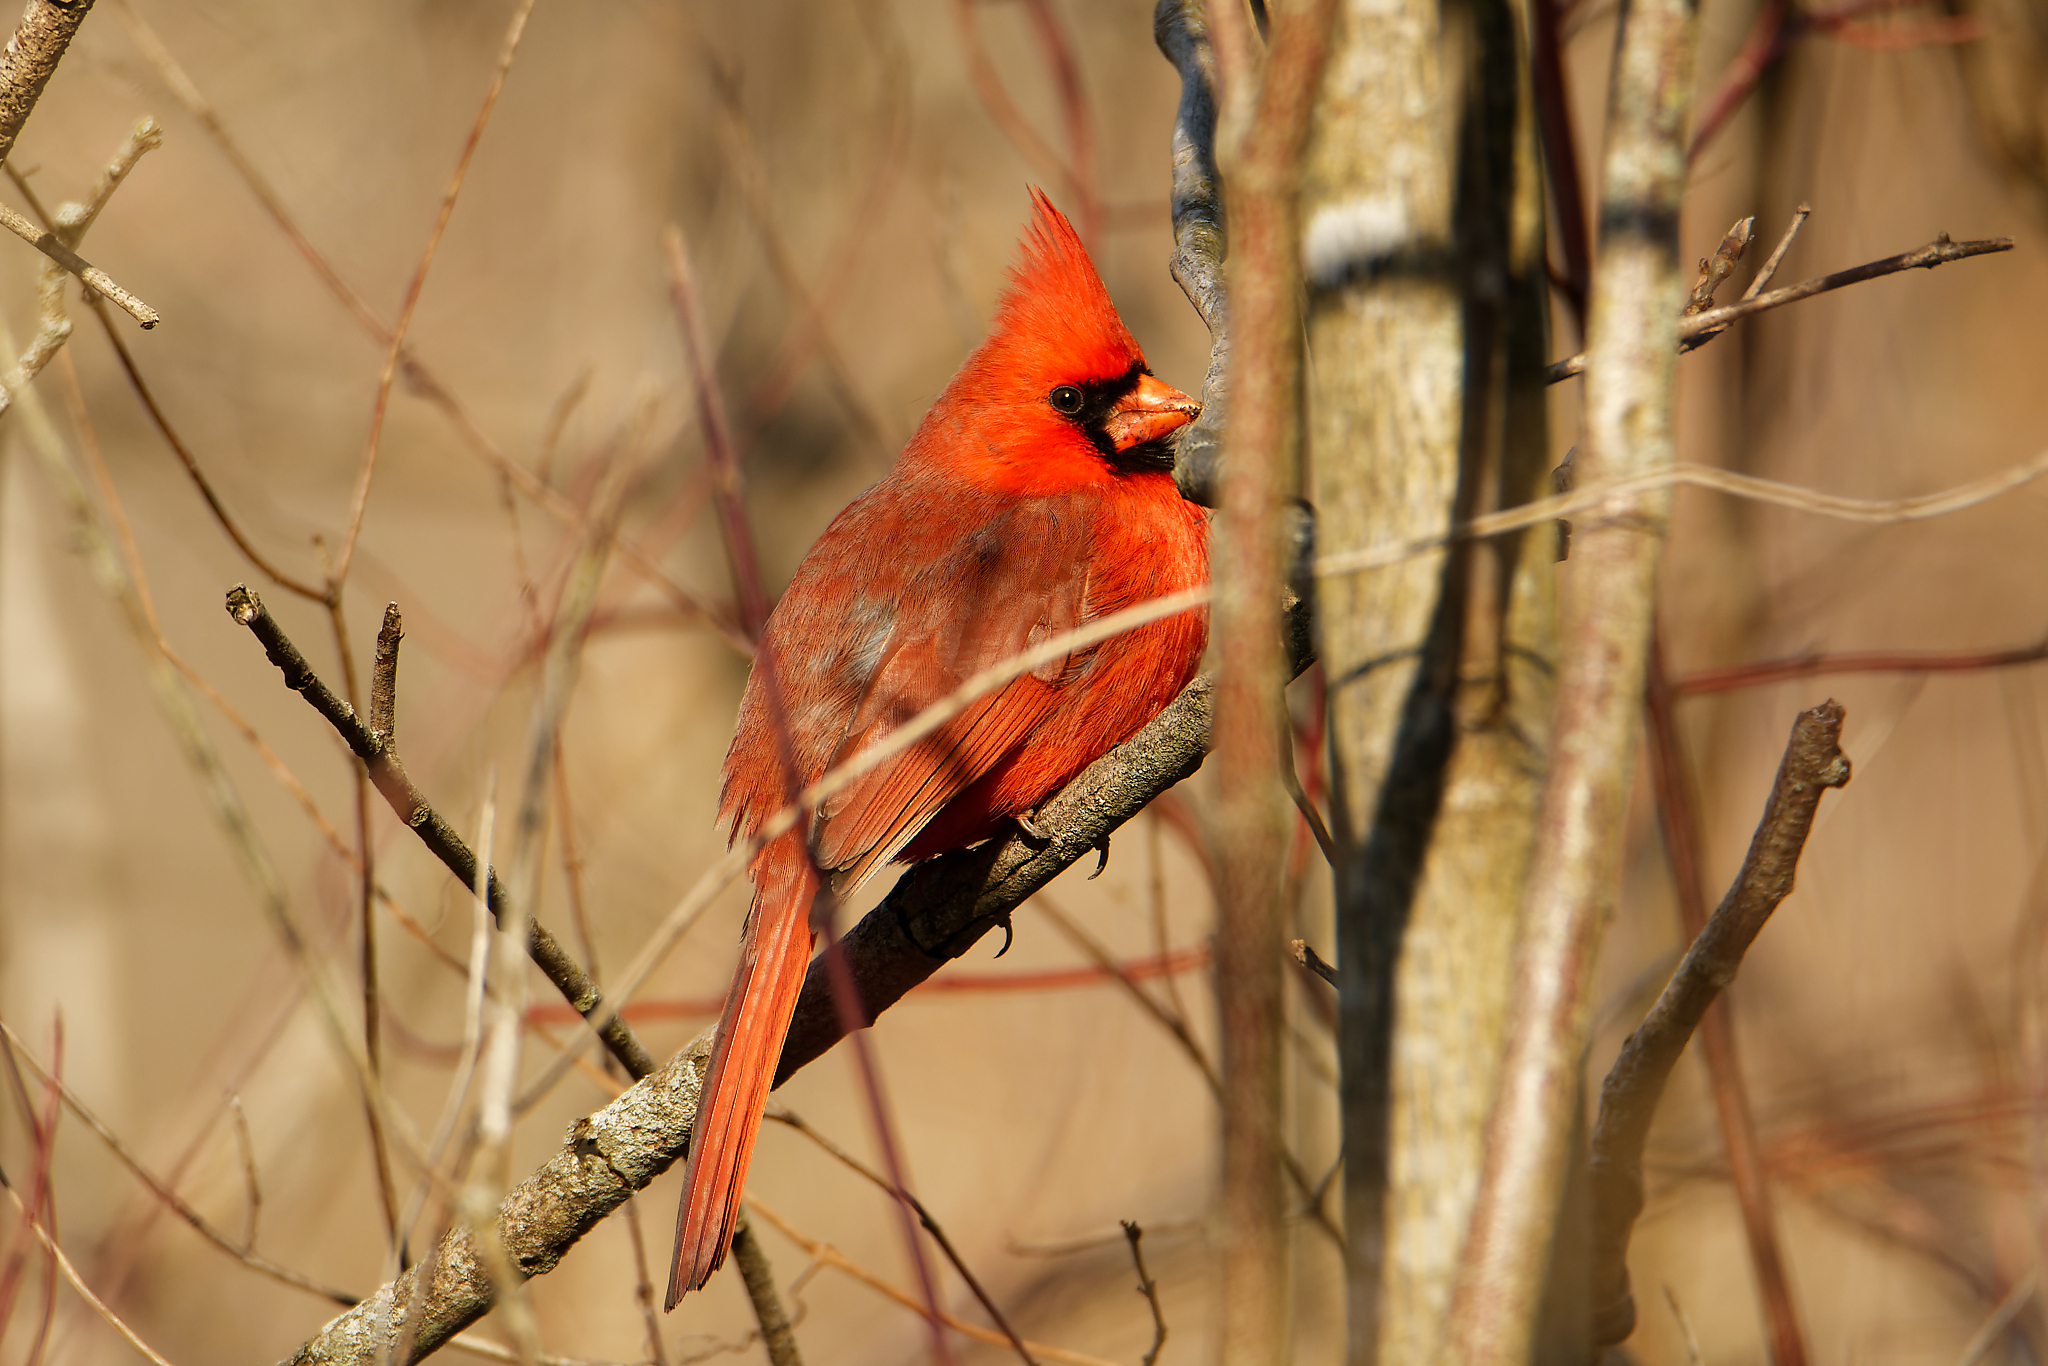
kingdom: Animalia
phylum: Chordata
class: Aves
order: Passeriformes
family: Cardinalidae
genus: Cardinalis
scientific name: Cardinalis cardinalis
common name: Northern cardinal
